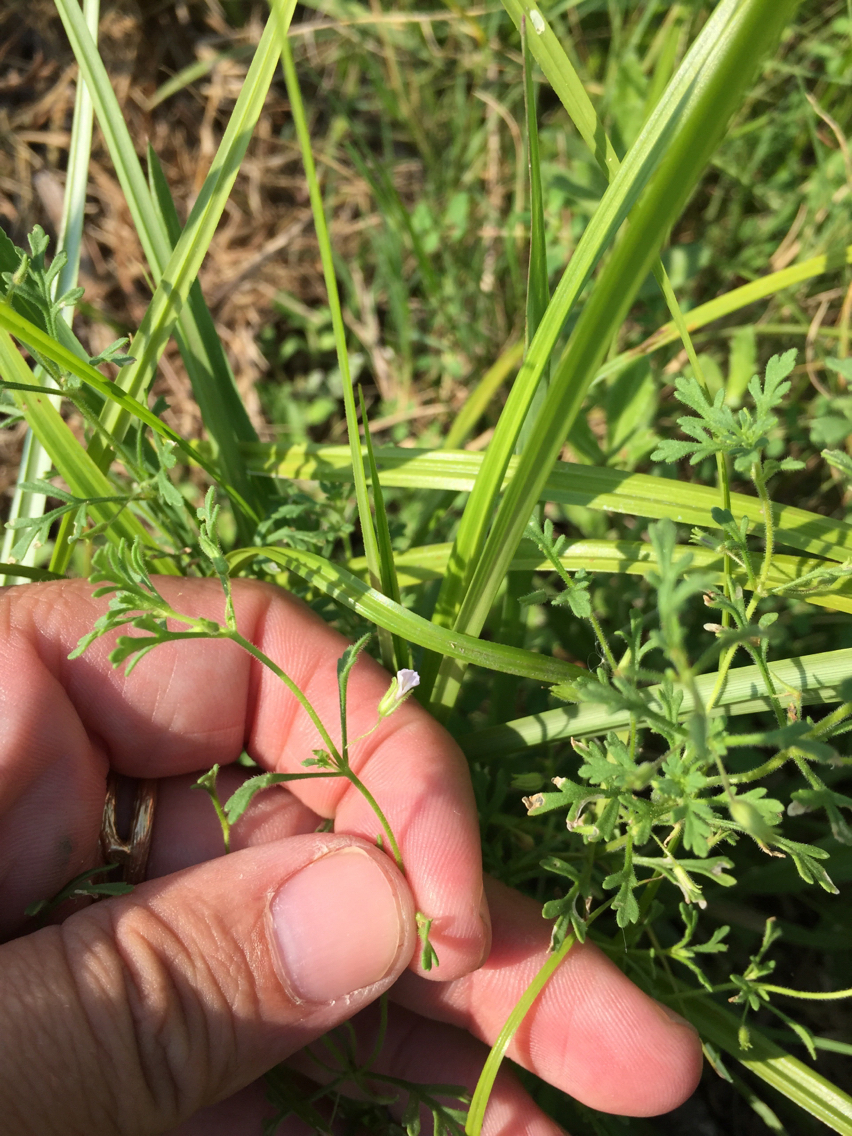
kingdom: Plantae
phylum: Tracheophyta
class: Magnoliopsida
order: Lamiales
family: Plantaginaceae
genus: Leucospora
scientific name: Leucospora multifida
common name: Narrow-leaf paleseed
